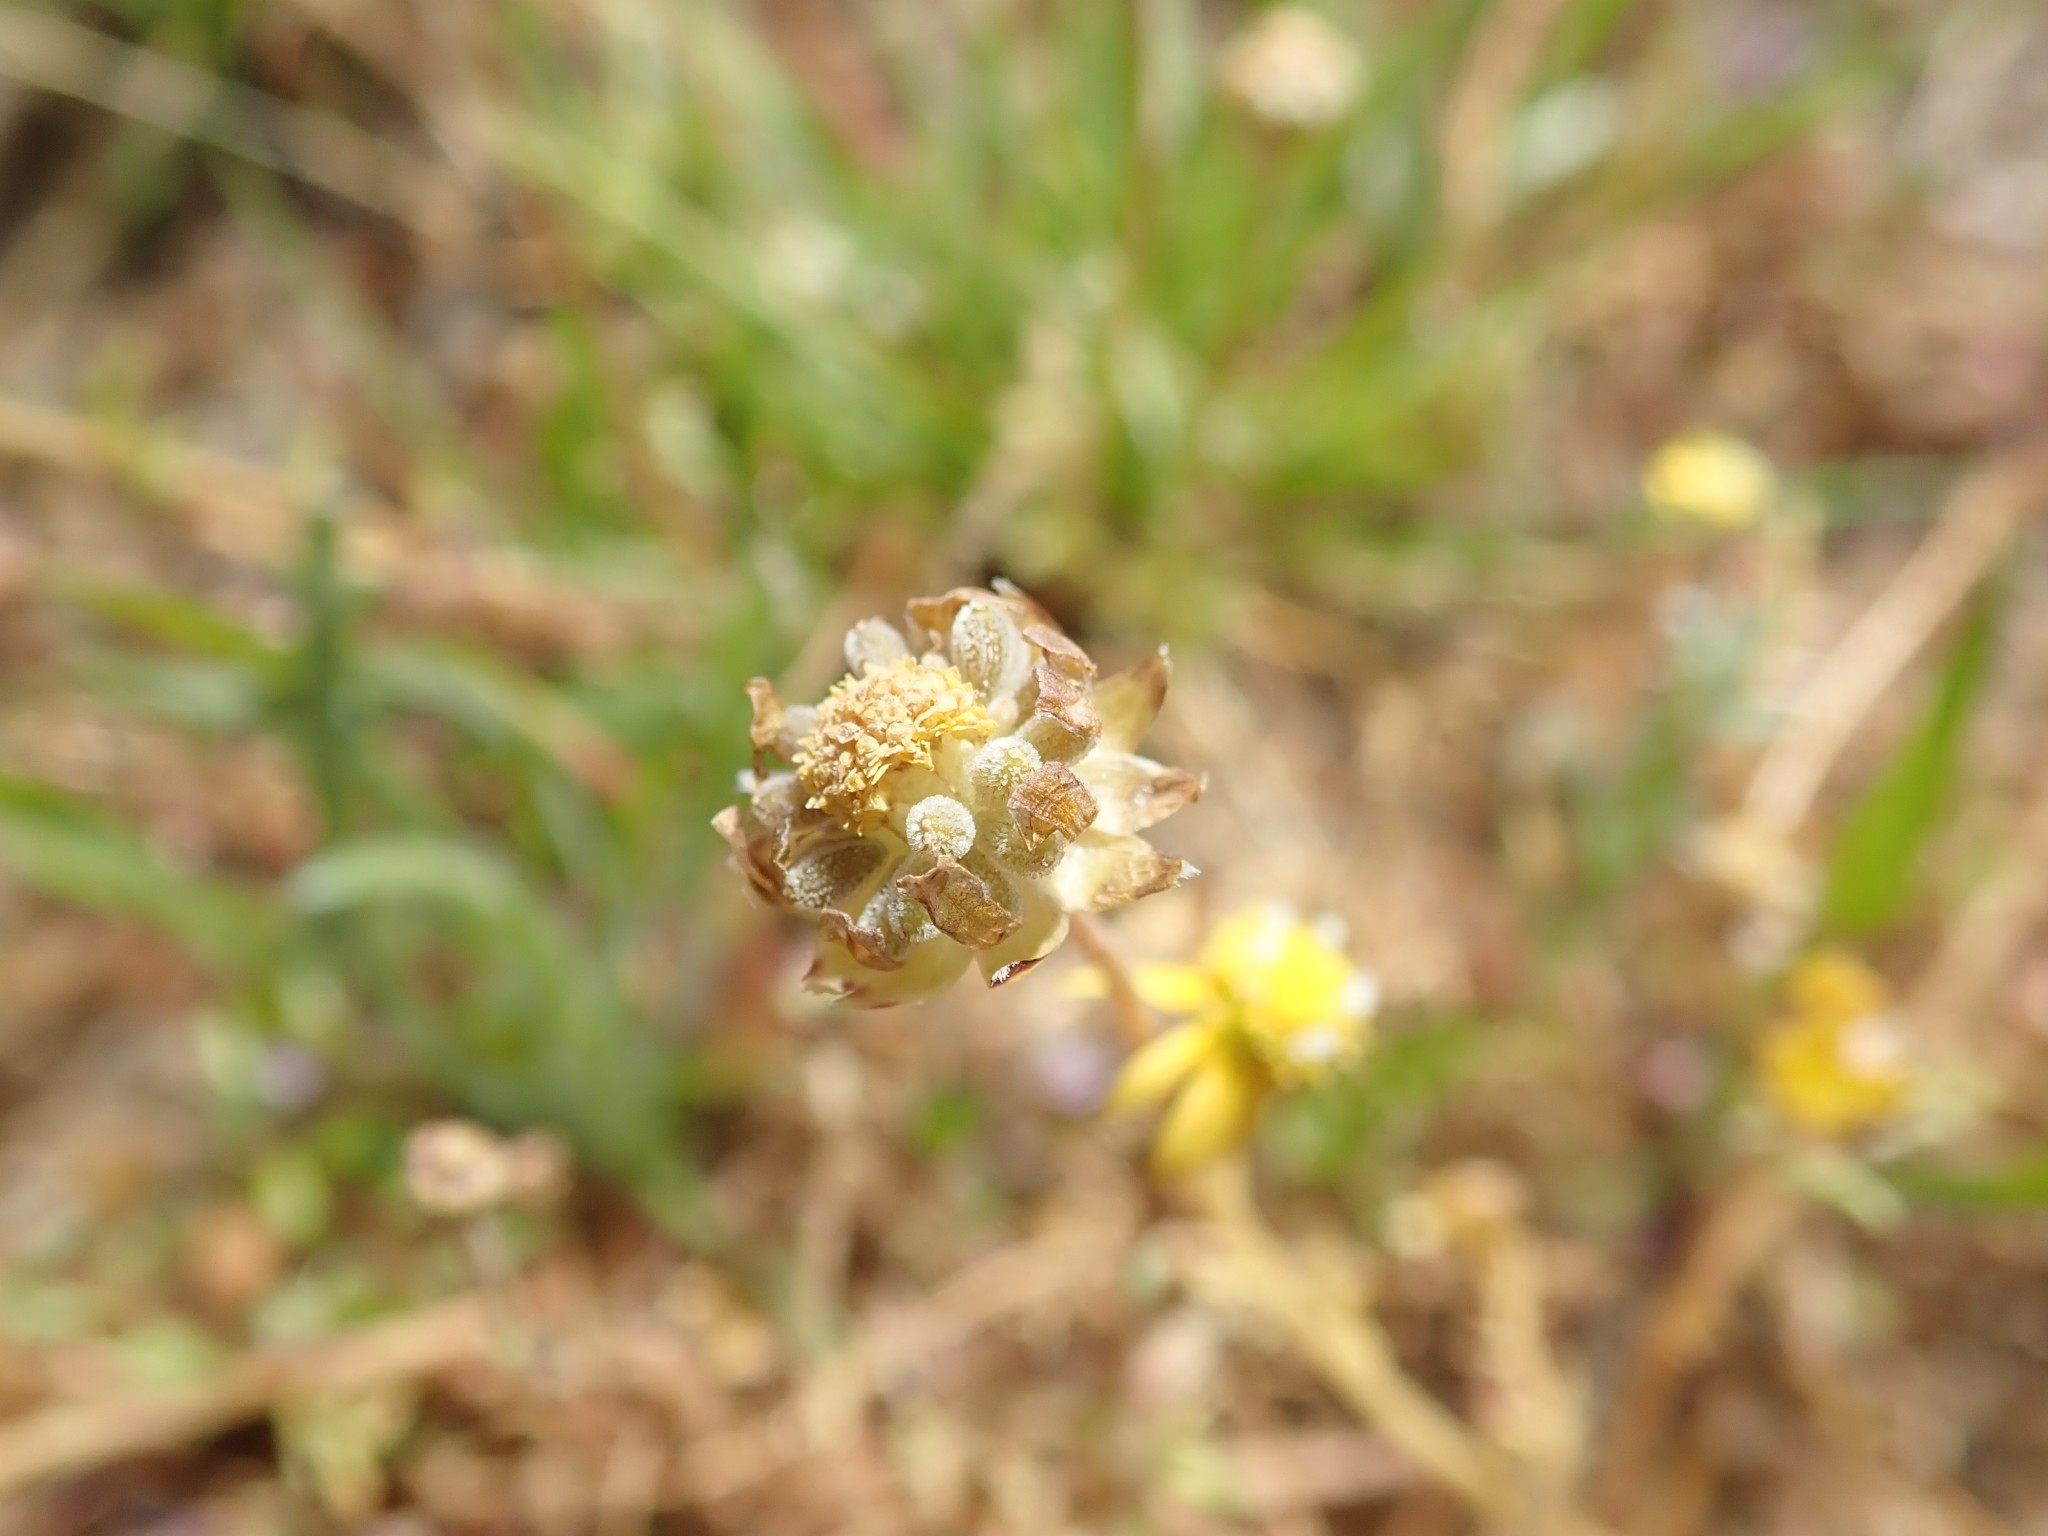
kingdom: Plantae
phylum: Tracheophyta
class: Magnoliopsida
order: Asterales
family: Asteraceae
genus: Blennosperma
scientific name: Blennosperma nanum
